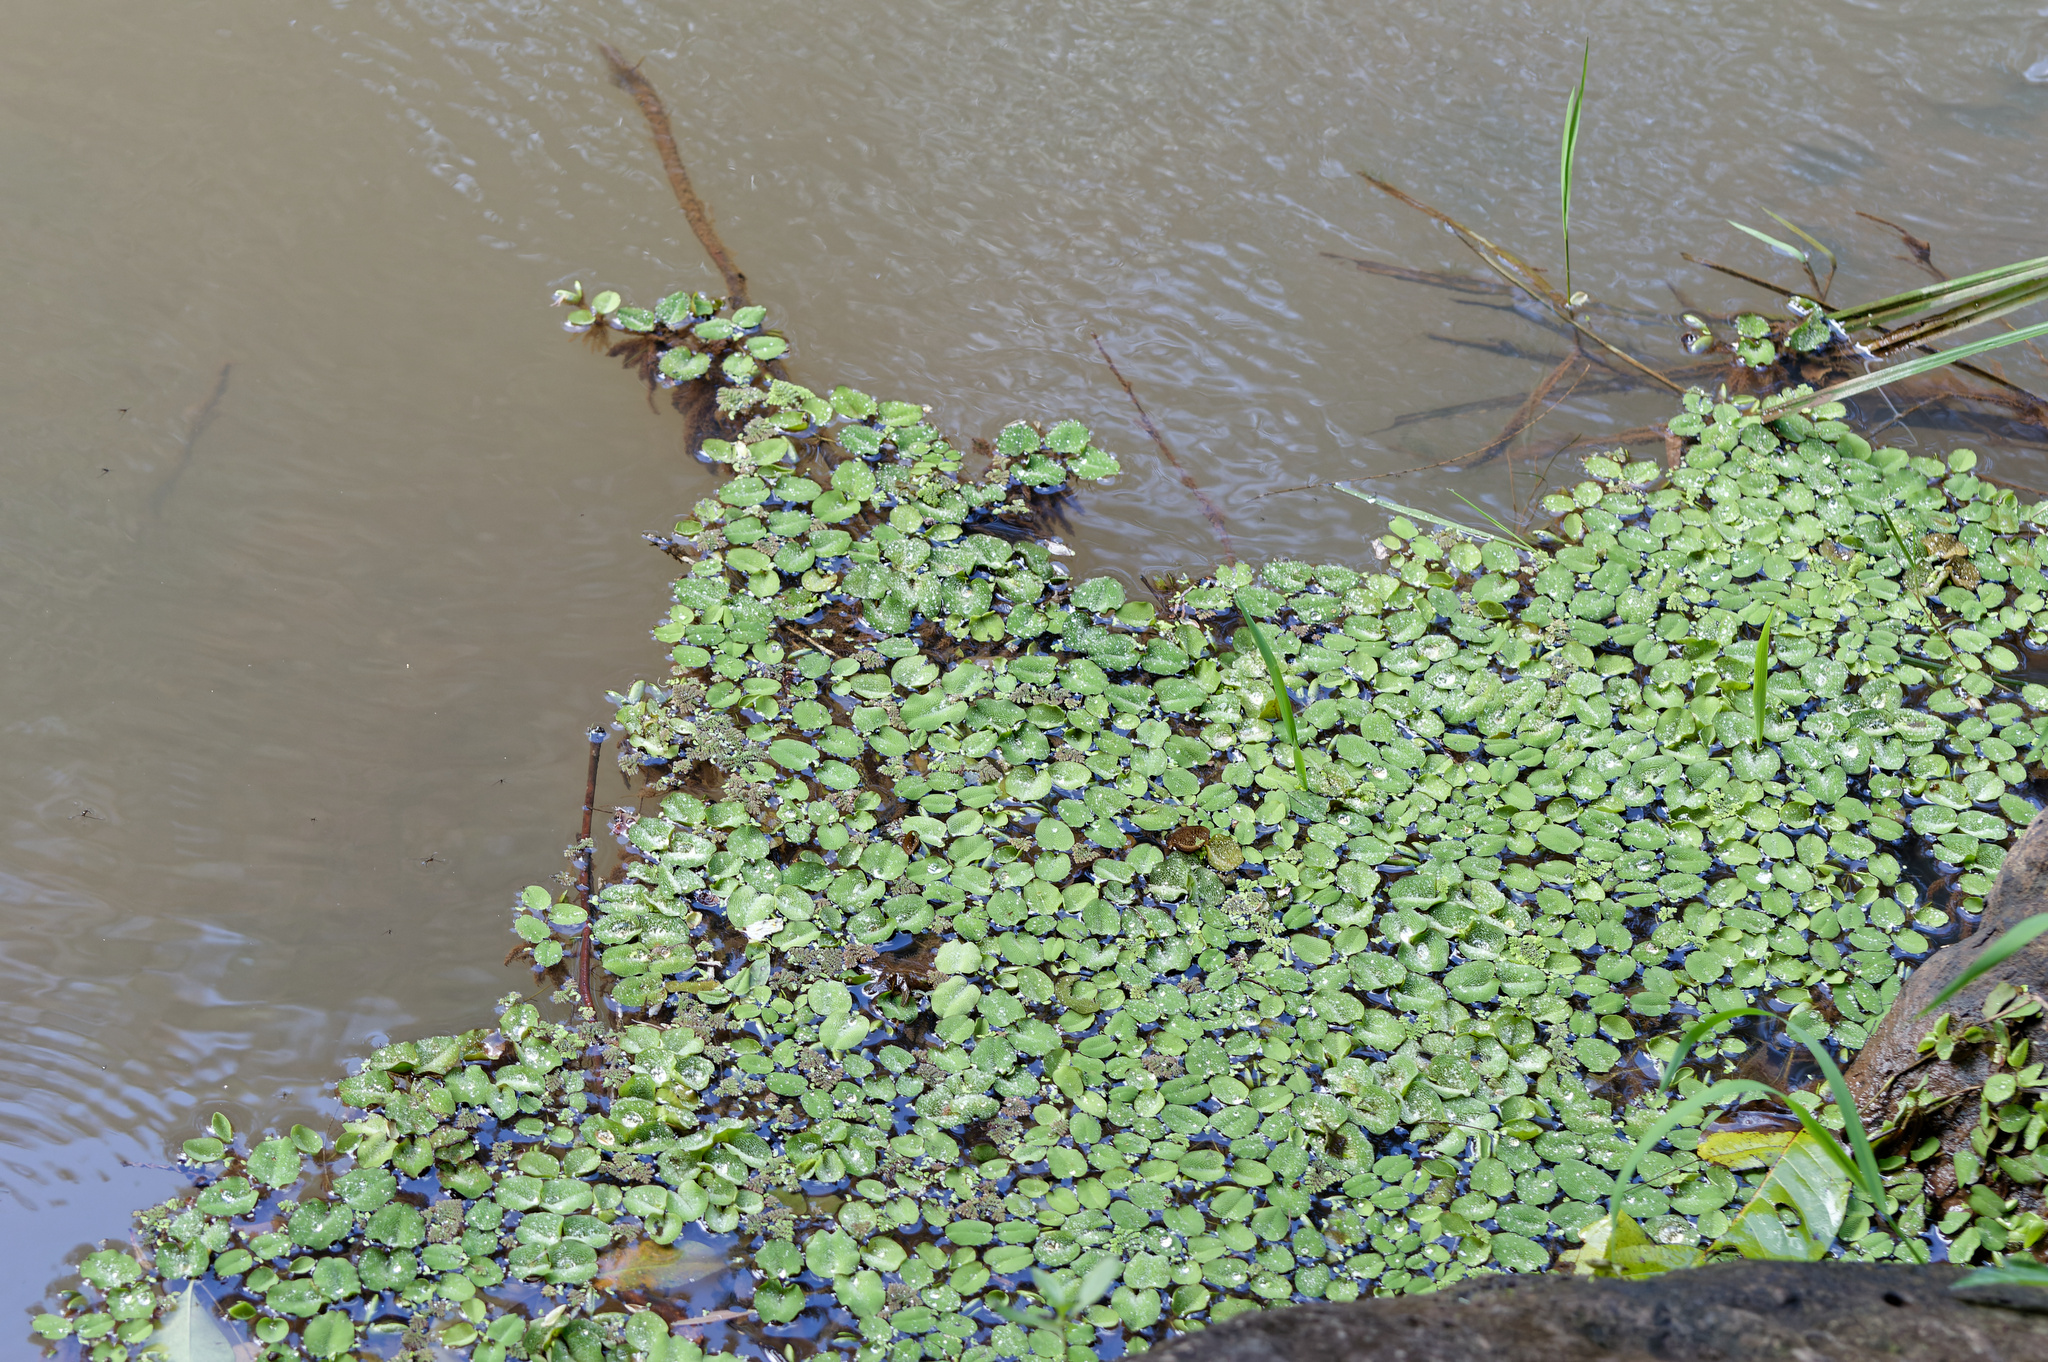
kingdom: Plantae
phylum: Tracheophyta
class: Polypodiopsida
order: Salviniales
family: Salviniaceae
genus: Salvinia
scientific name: Salvinia molesta
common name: Kariba weed
